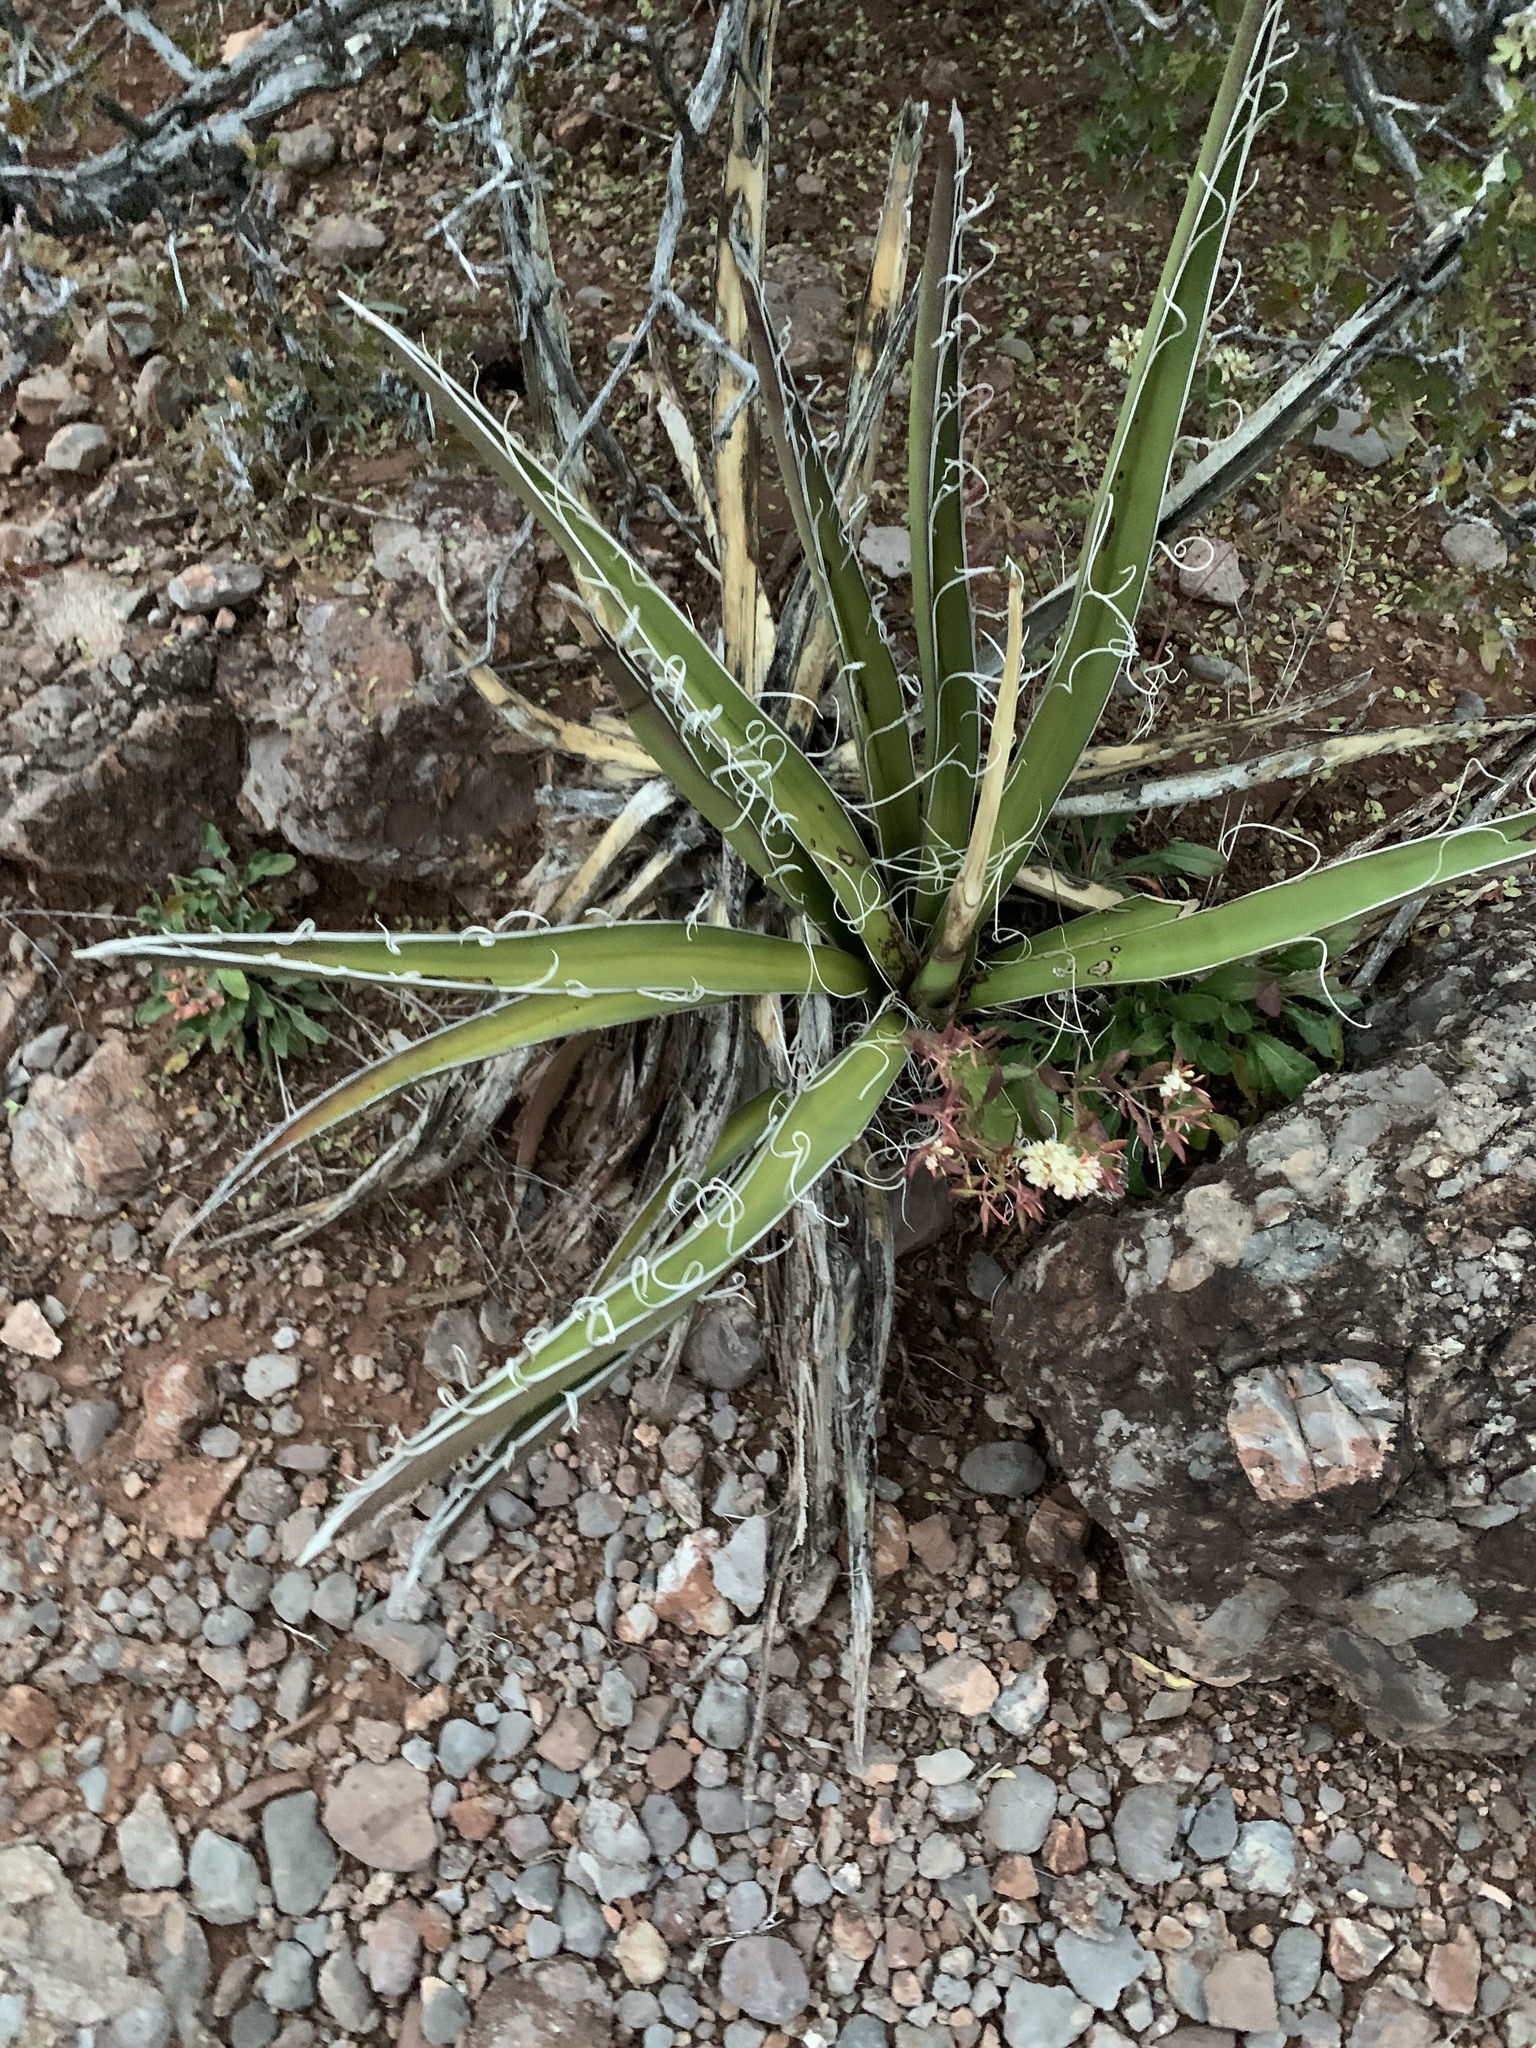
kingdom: Plantae
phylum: Tracheophyta
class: Liliopsida
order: Asparagales
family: Asparagaceae
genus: Yucca
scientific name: Yucca baccata
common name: Banana yucca
